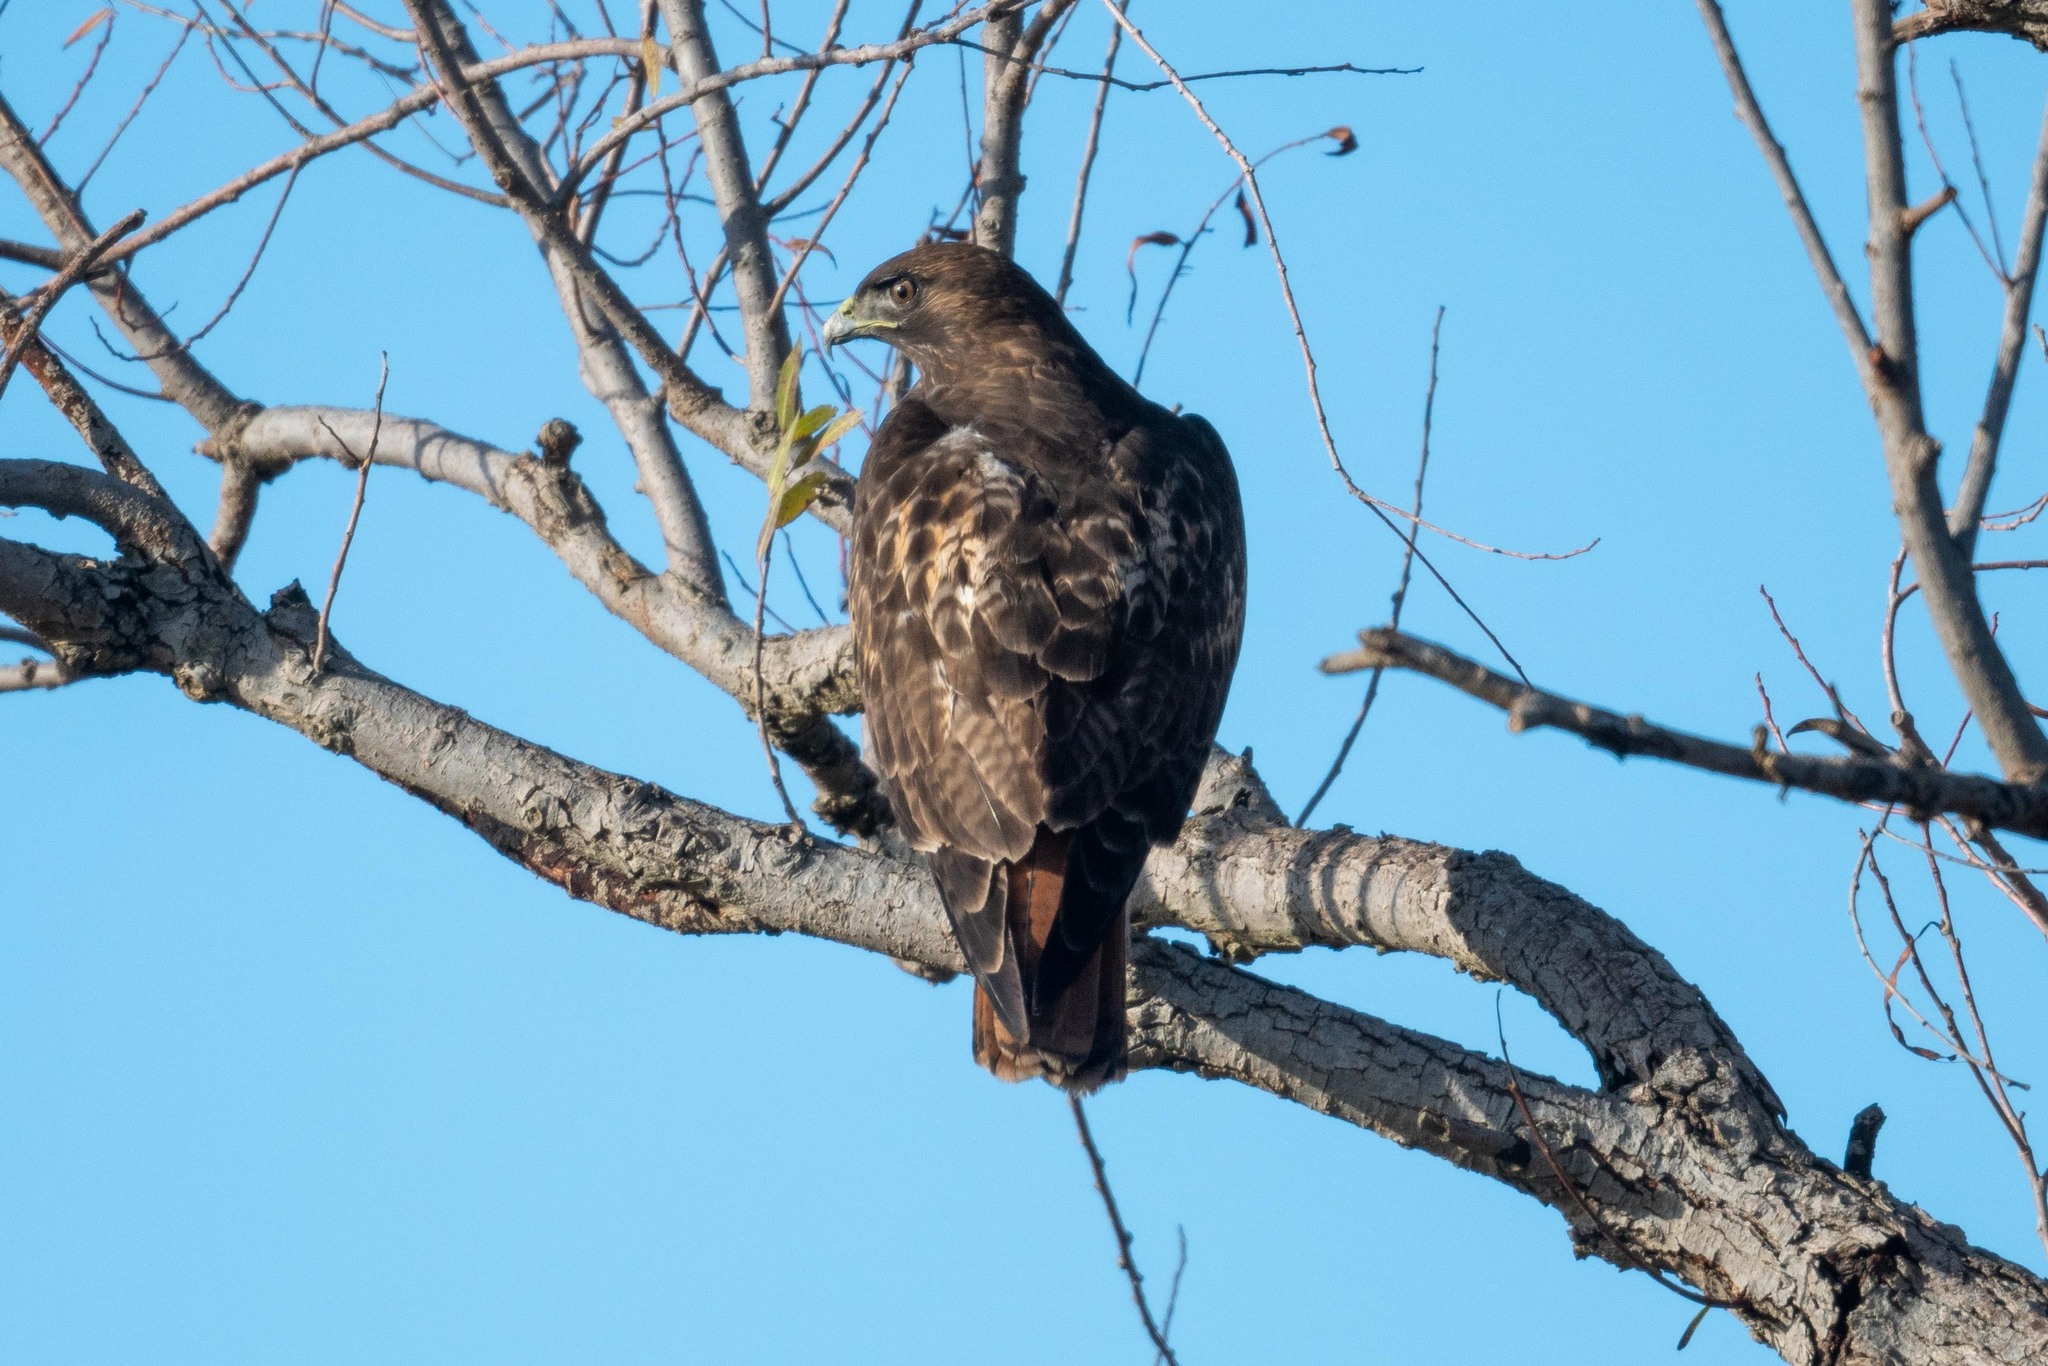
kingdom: Animalia
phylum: Chordata
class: Aves
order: Accipitriformes
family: Accipitridae
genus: Buteo
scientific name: Buteo jamaicensis
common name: Red-tailed hawk
